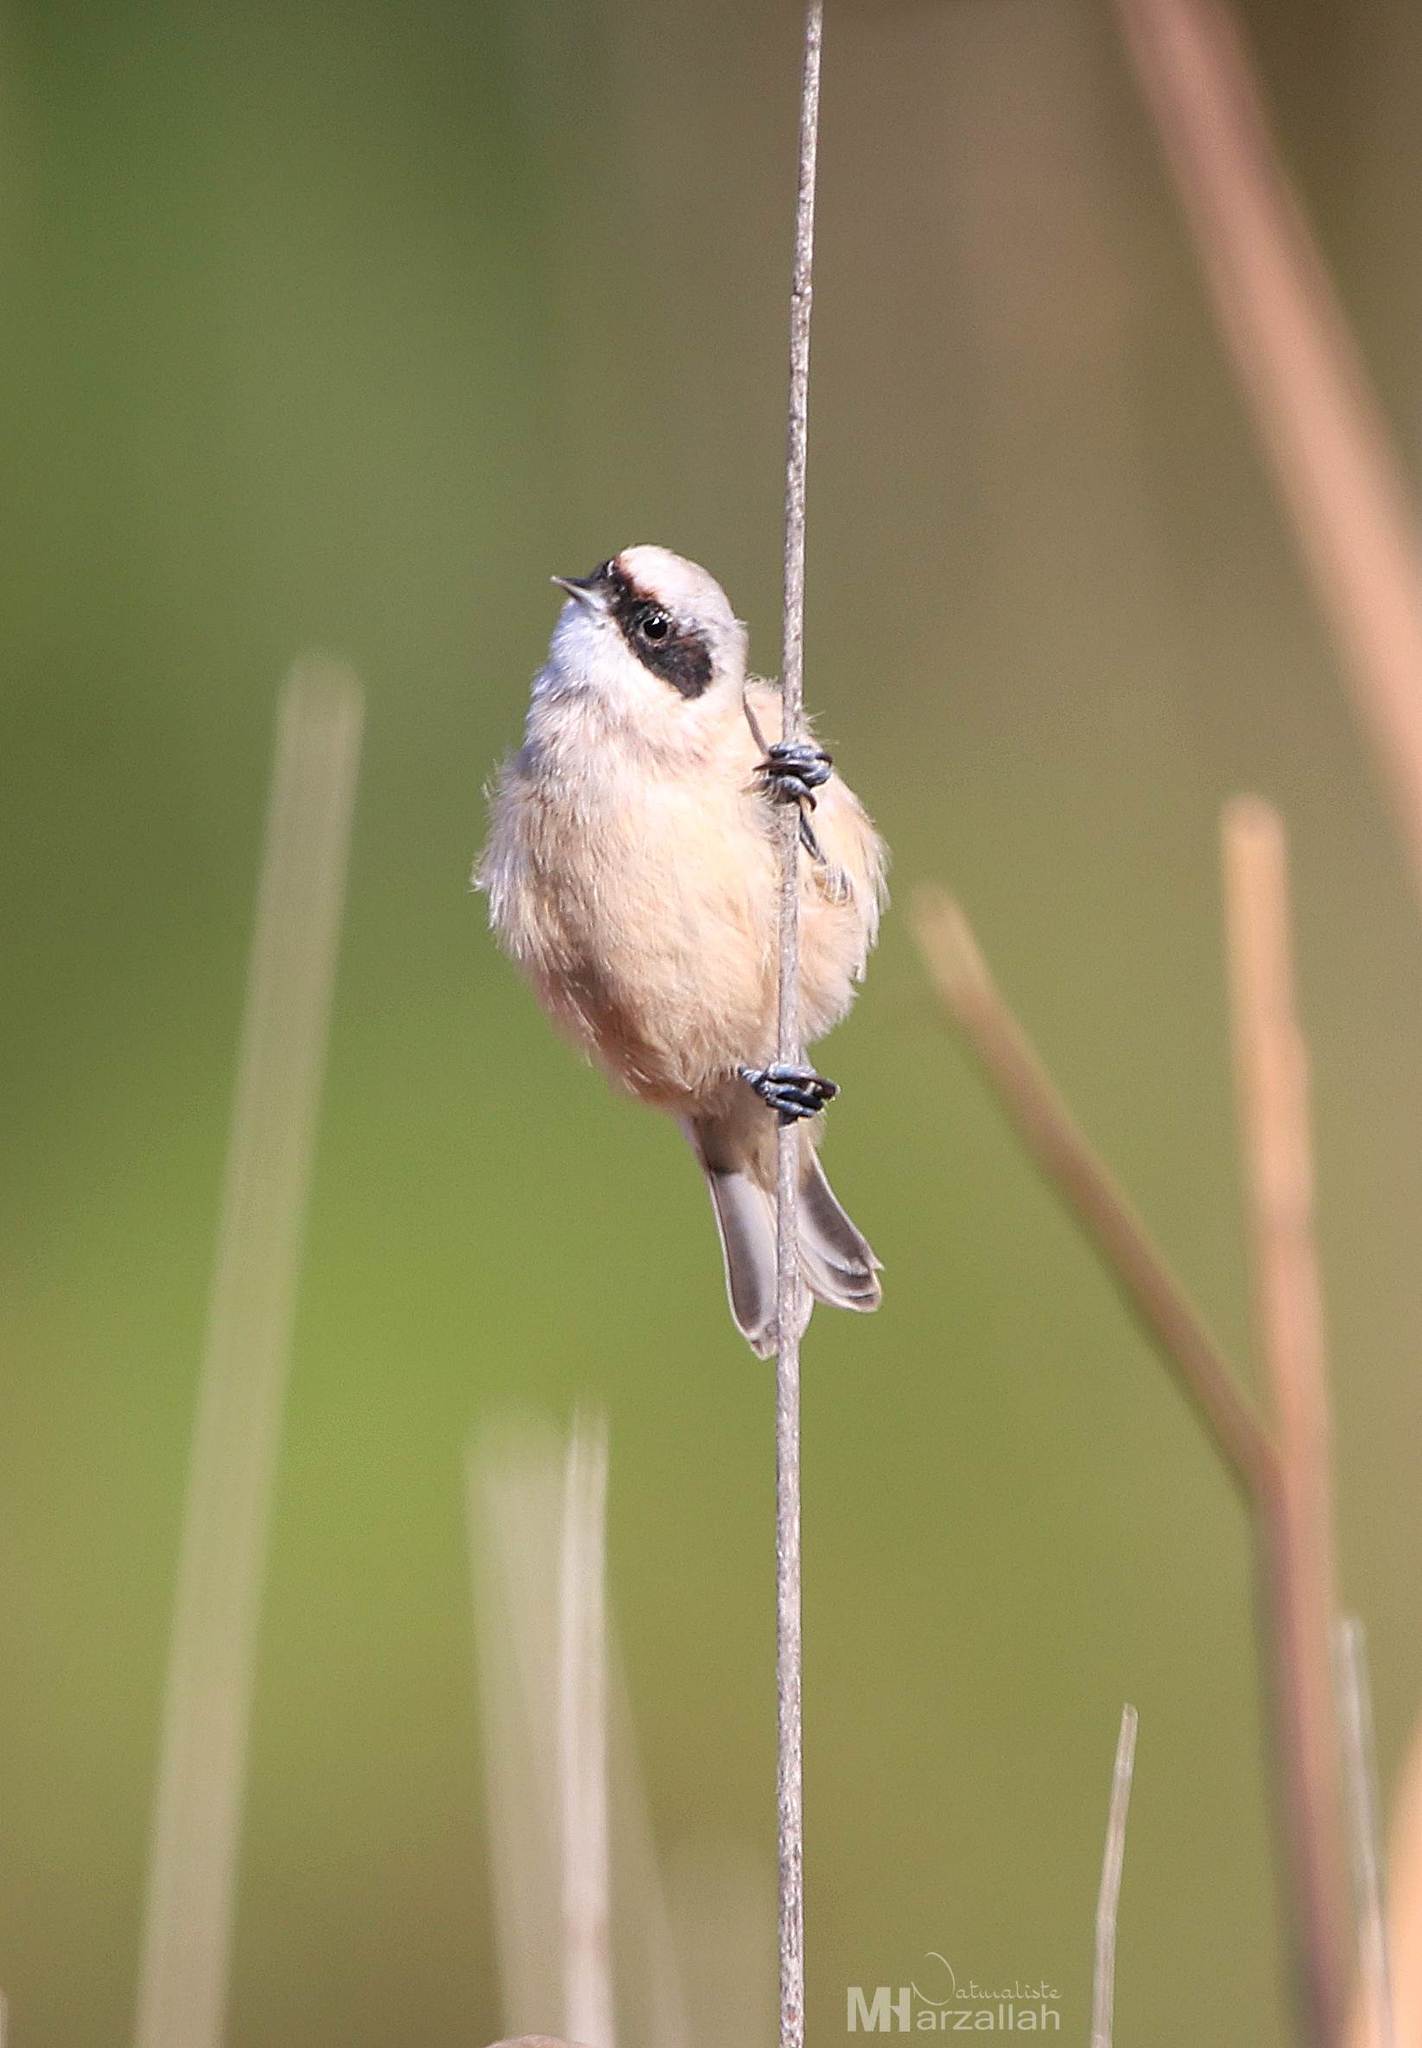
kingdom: Animalia
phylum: Chordata
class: Aves
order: Passeriformes
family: Remizidae
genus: Remiz
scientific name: Remiz pendulinus
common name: Eurasian penduline tit
